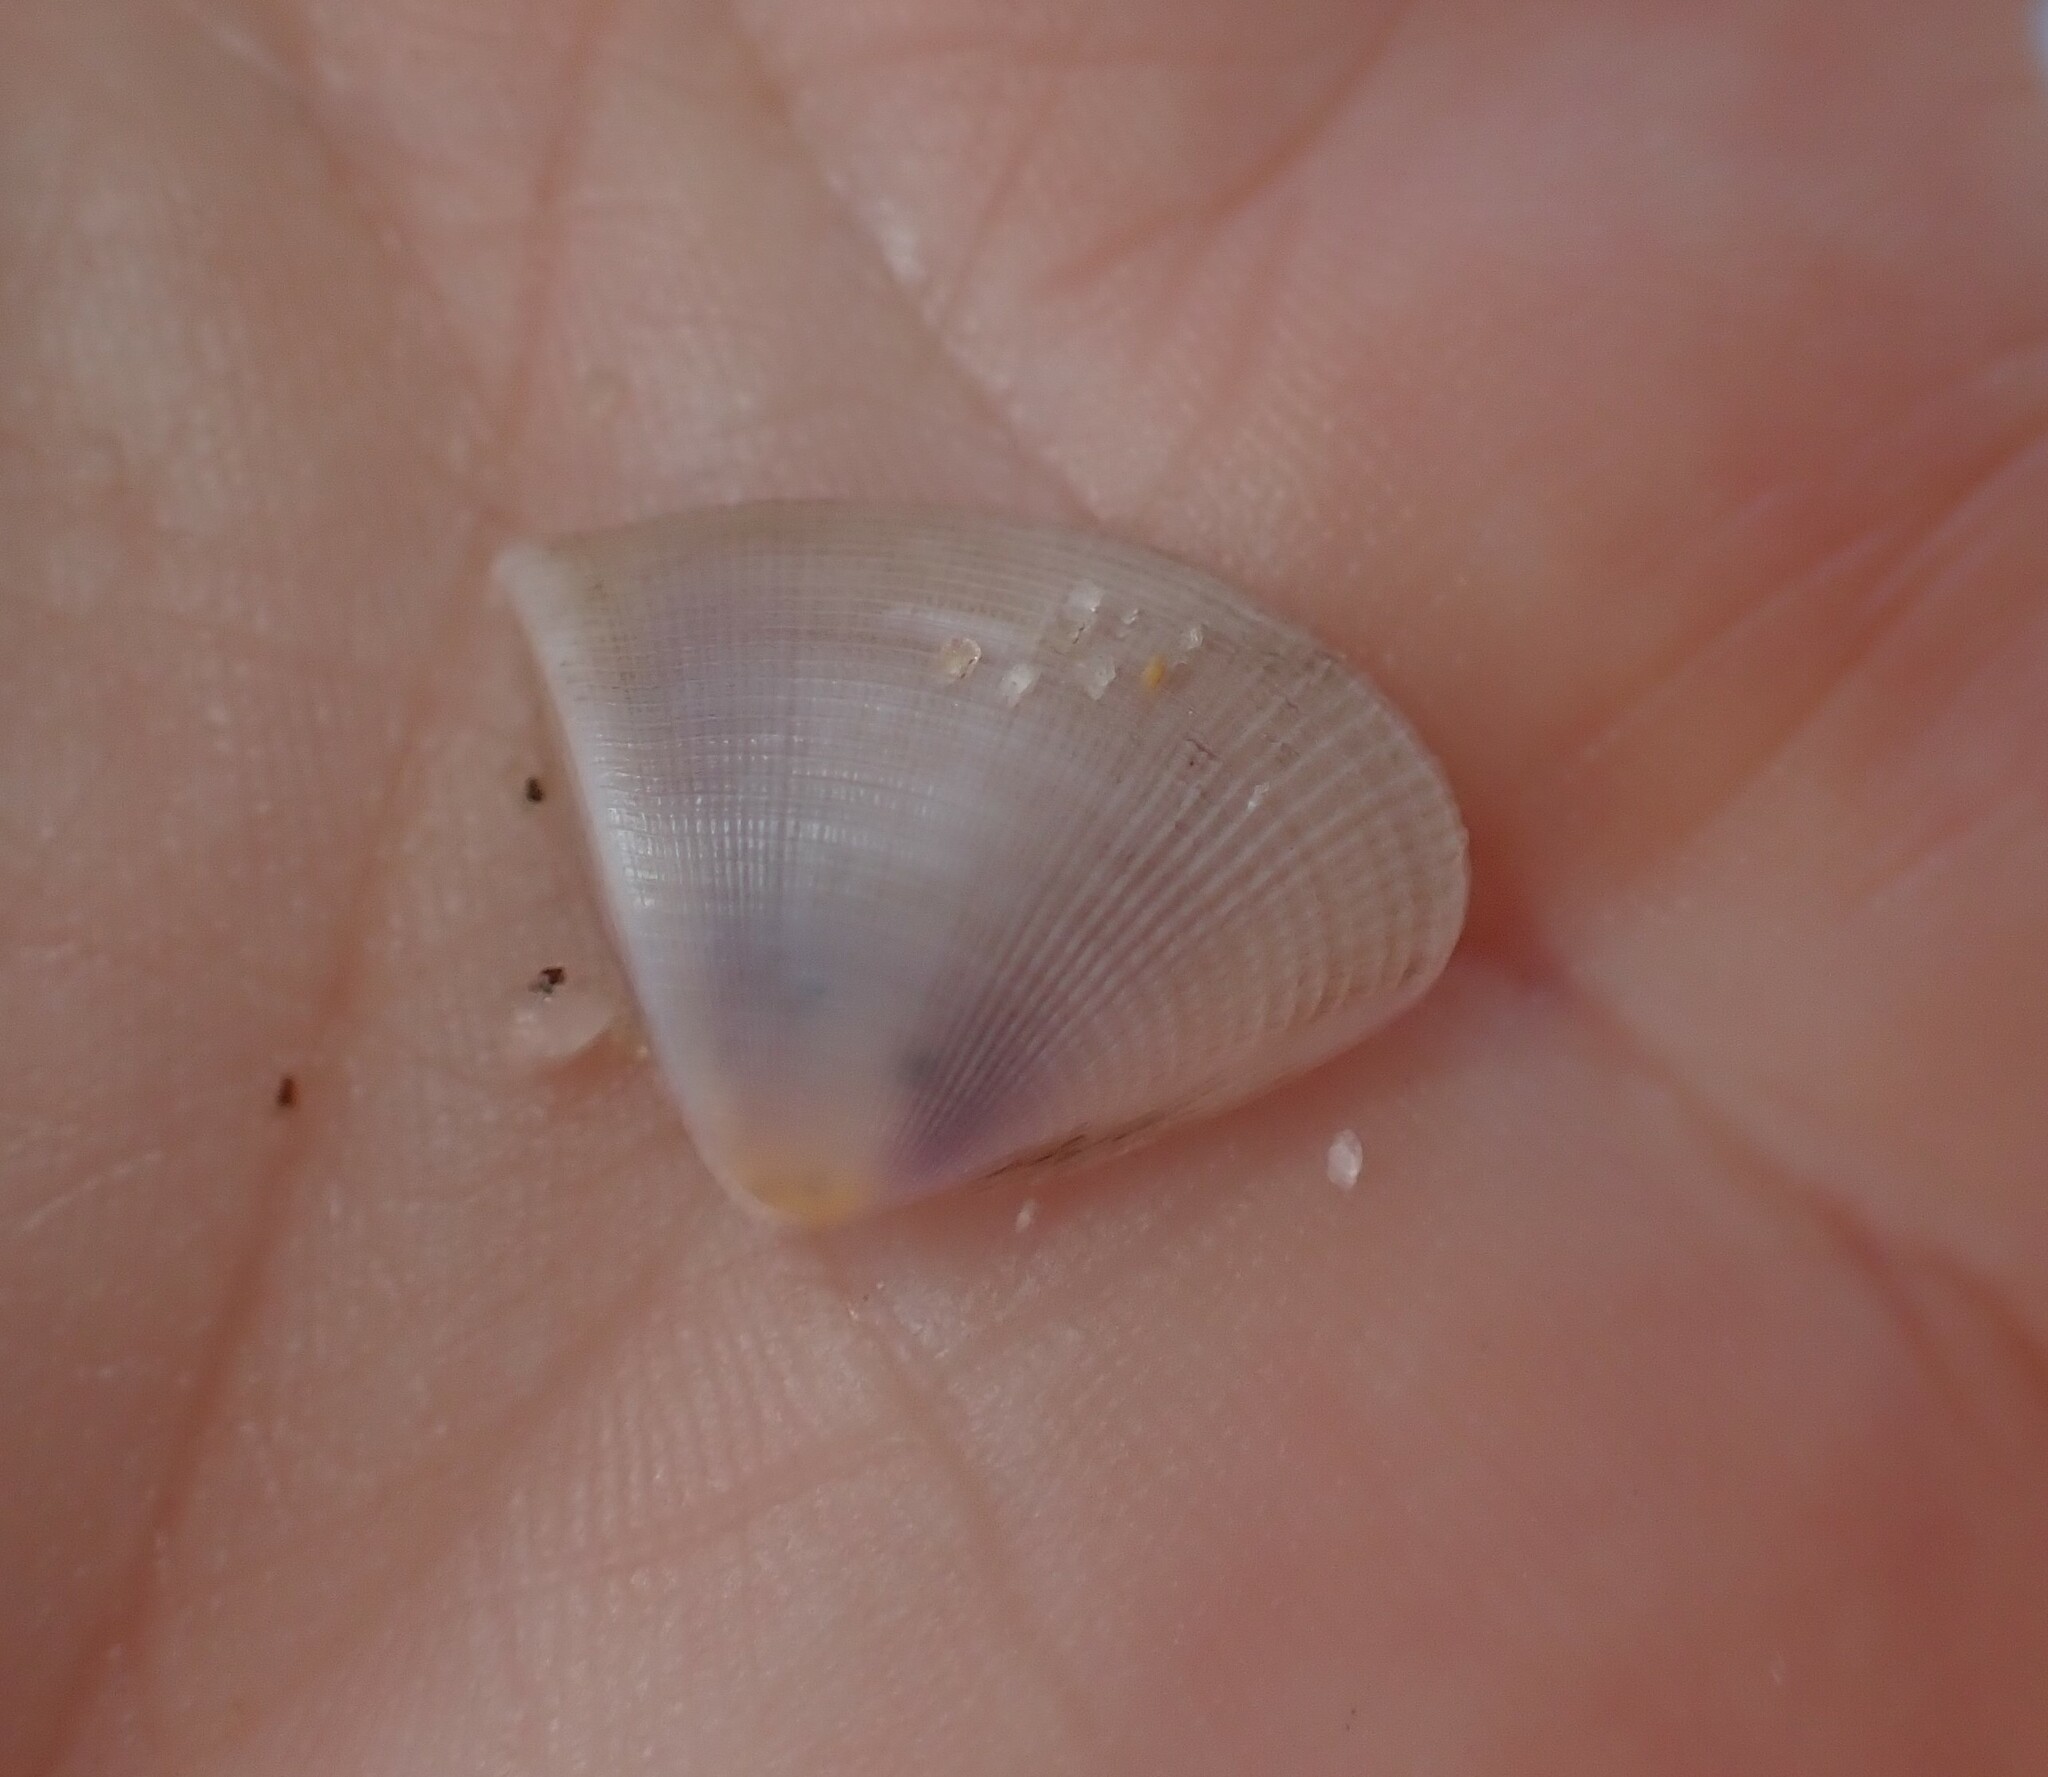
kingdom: Animalia
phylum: Mollusca
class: Bivalvia
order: Cardiida
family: Donacidae
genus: Hecuba
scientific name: Hecuba scortum
